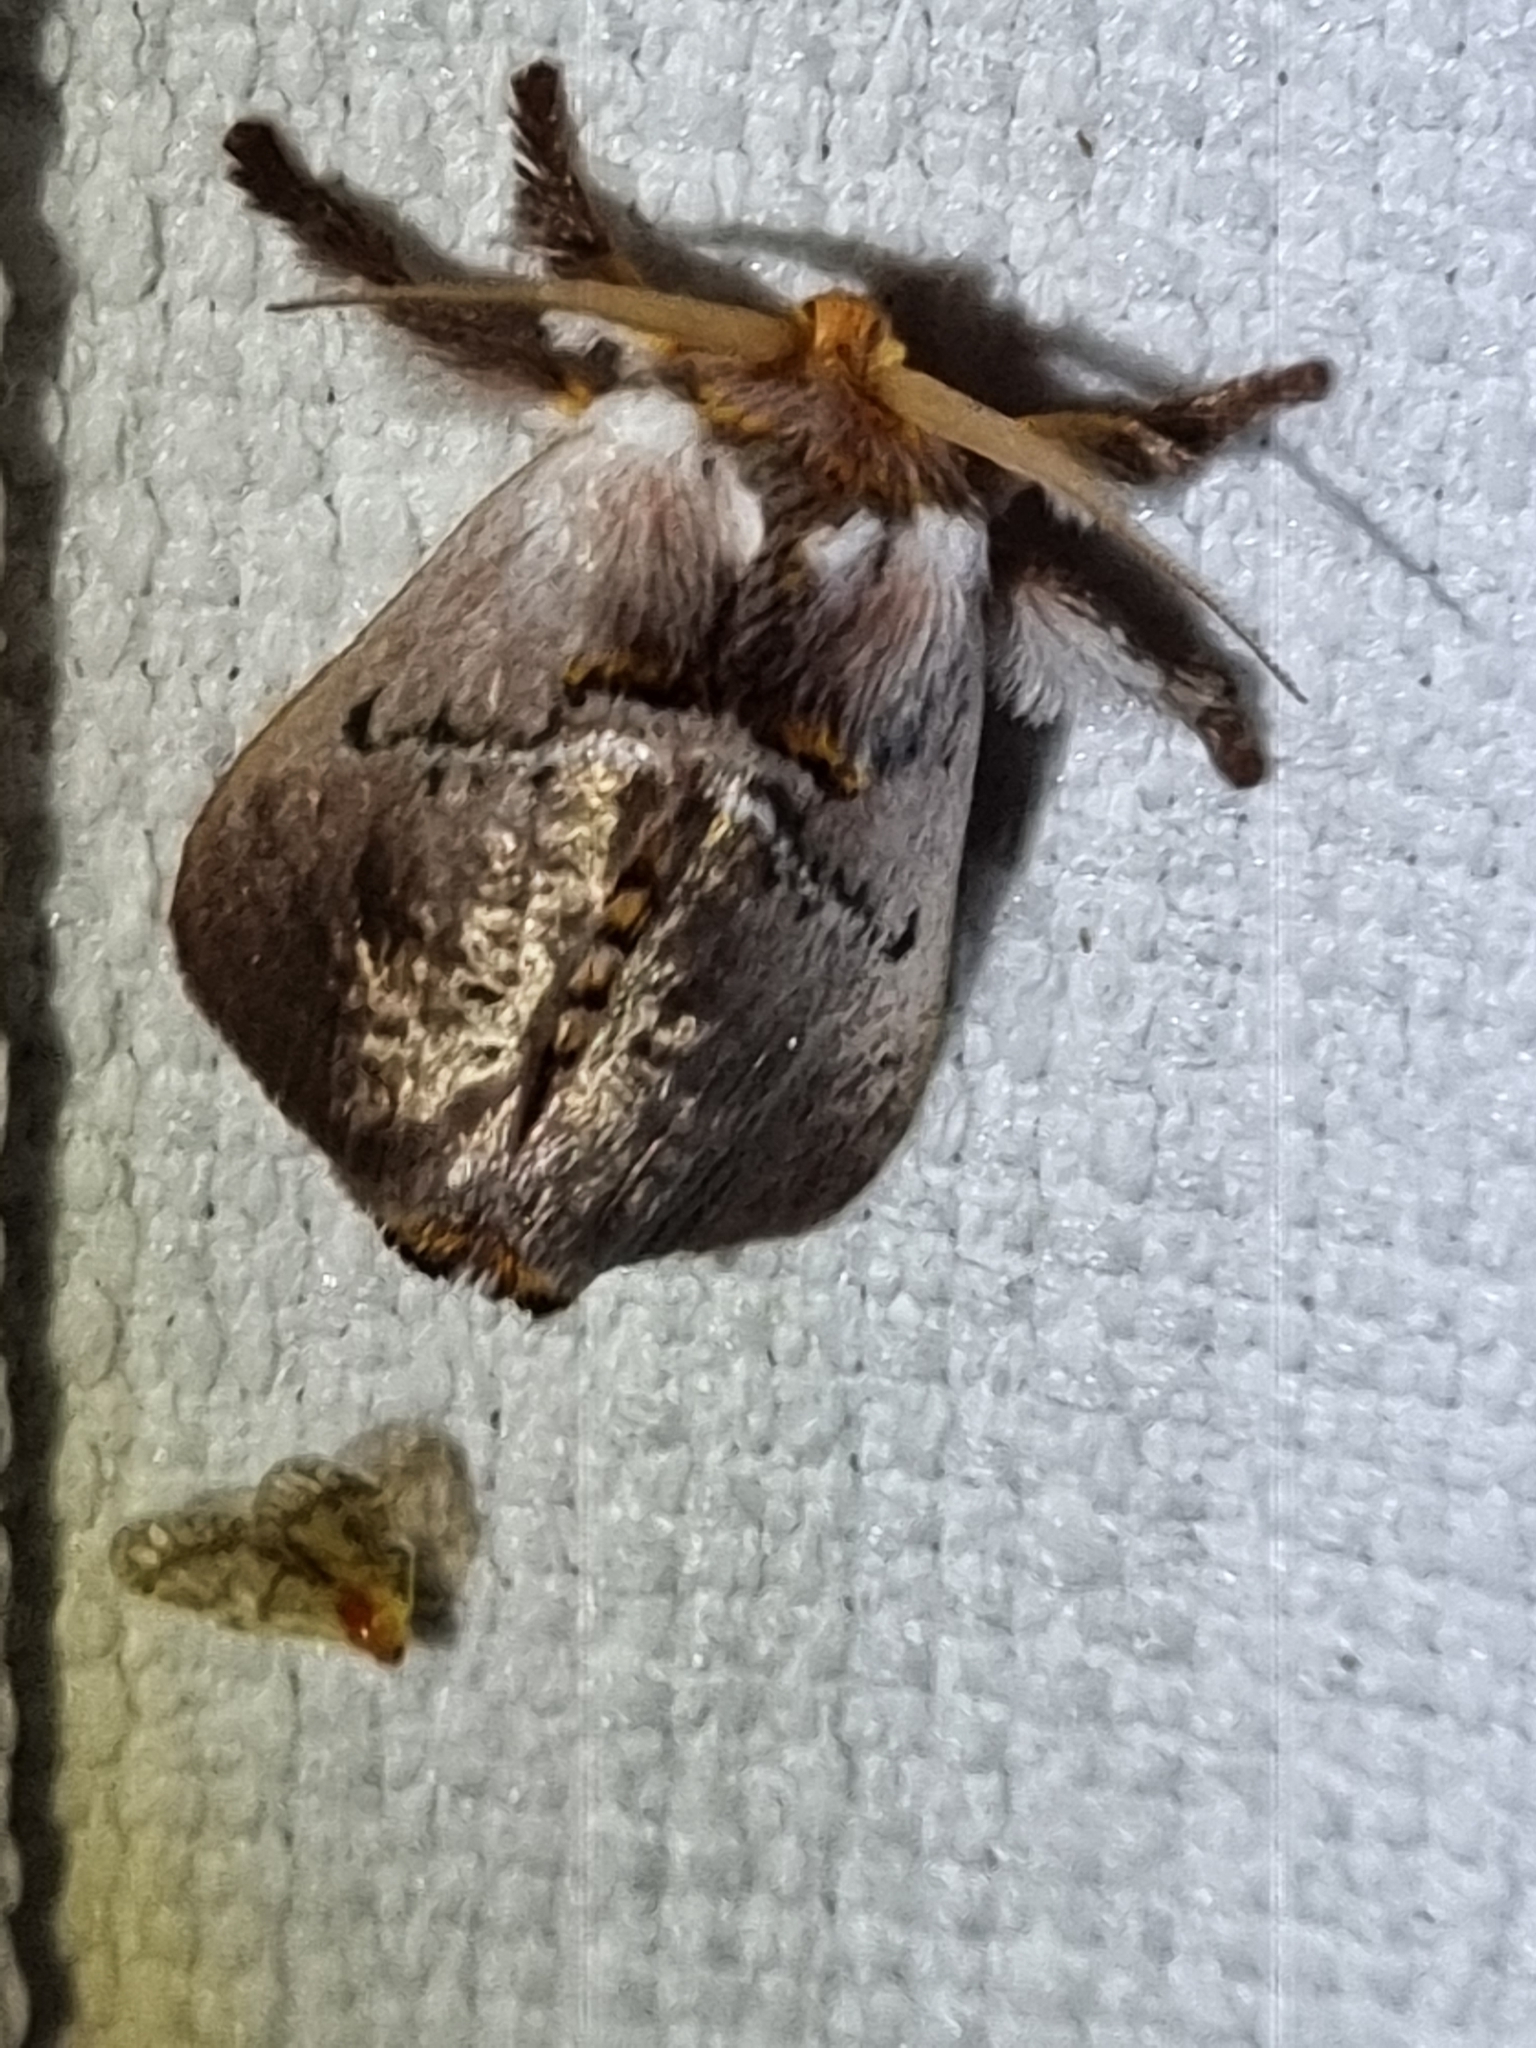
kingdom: Animalia
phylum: Arthropoda
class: Insecta
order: Lepidoptera
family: Limacodidae
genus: Eloasa
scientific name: Eloasa infrequens
